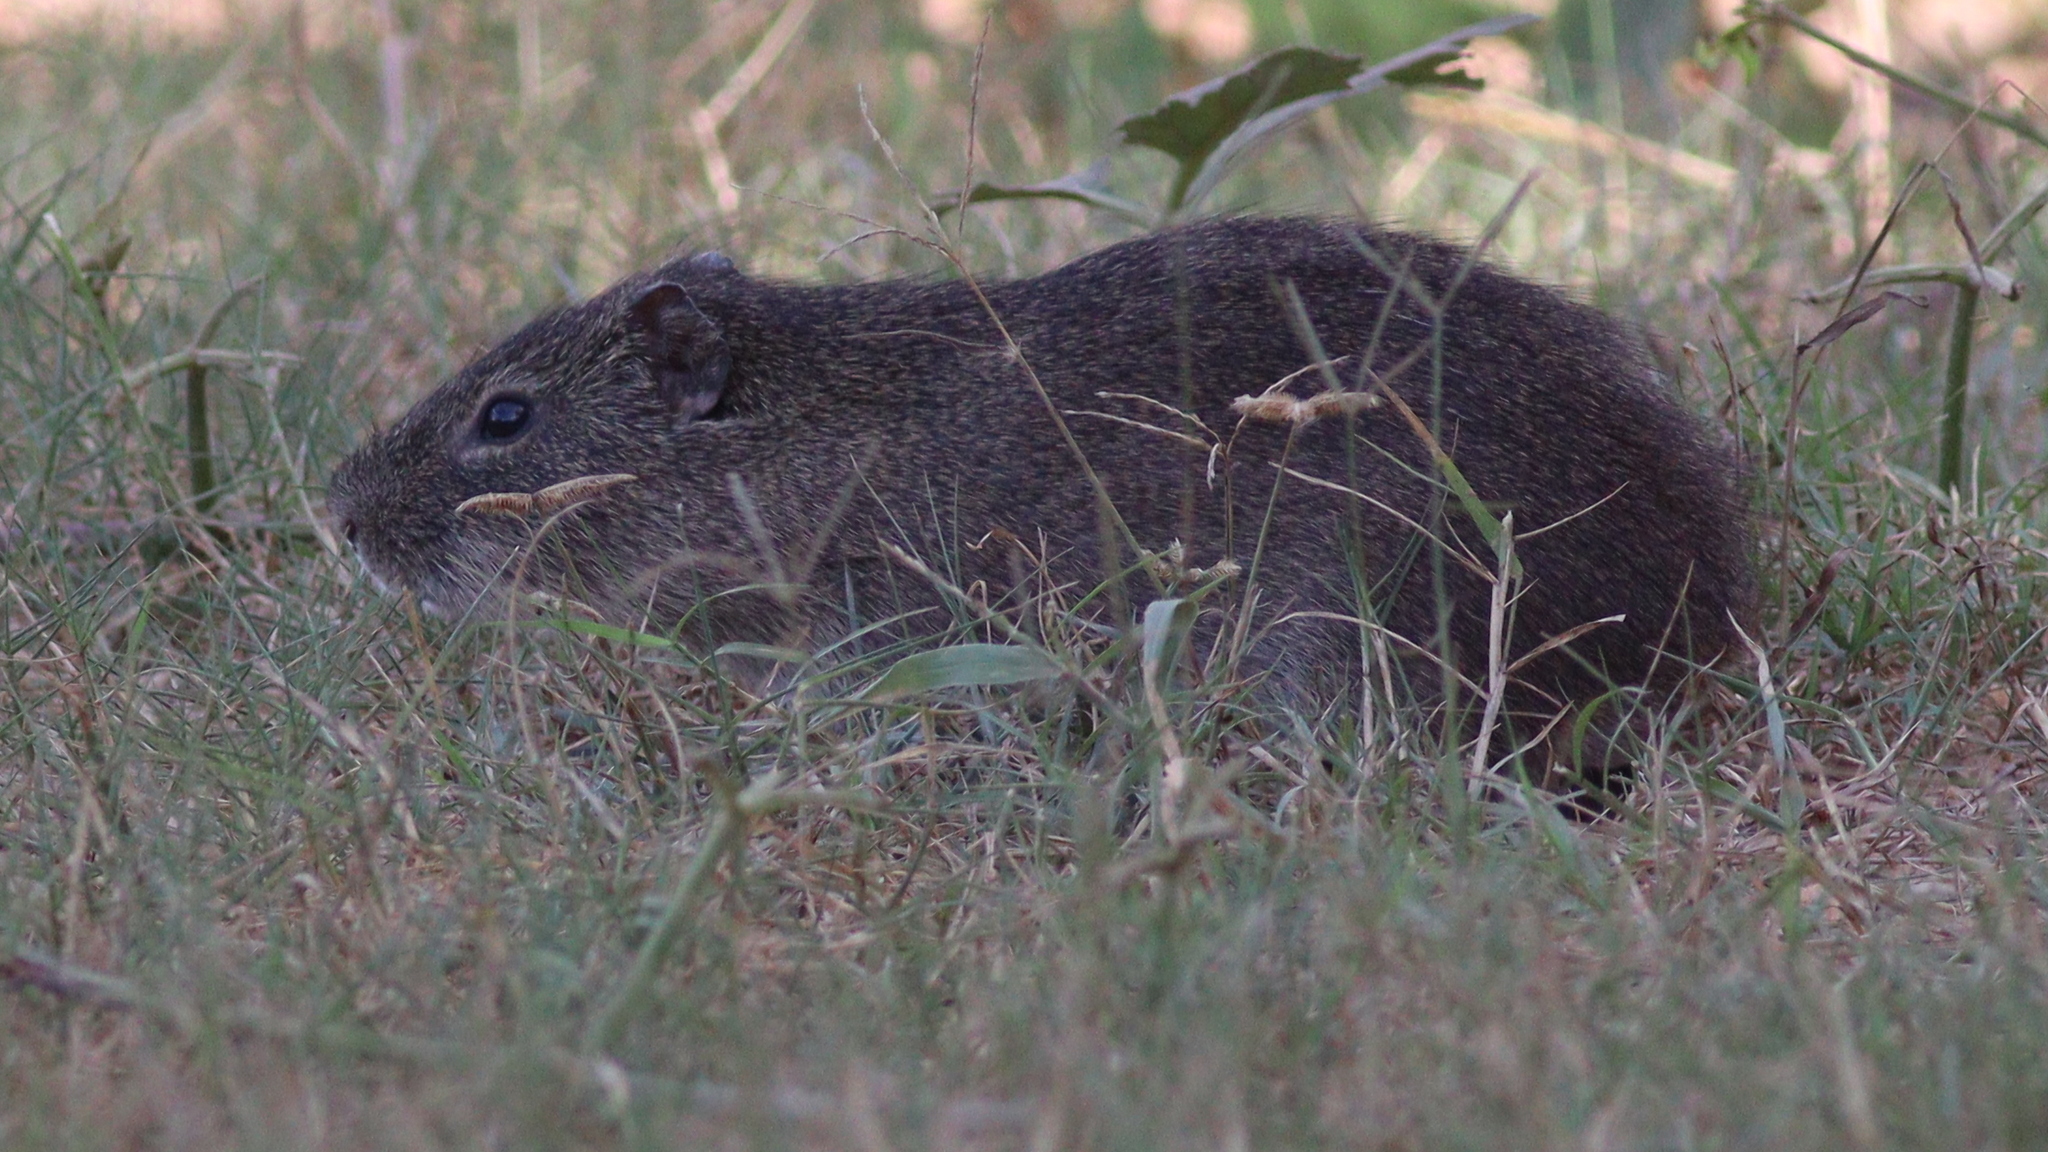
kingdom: Animalia
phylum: Chordata
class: Mammalia
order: Rodentia
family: Caviidae
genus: Cavia
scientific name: Cavia aperea
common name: Brazilian guinea pig
